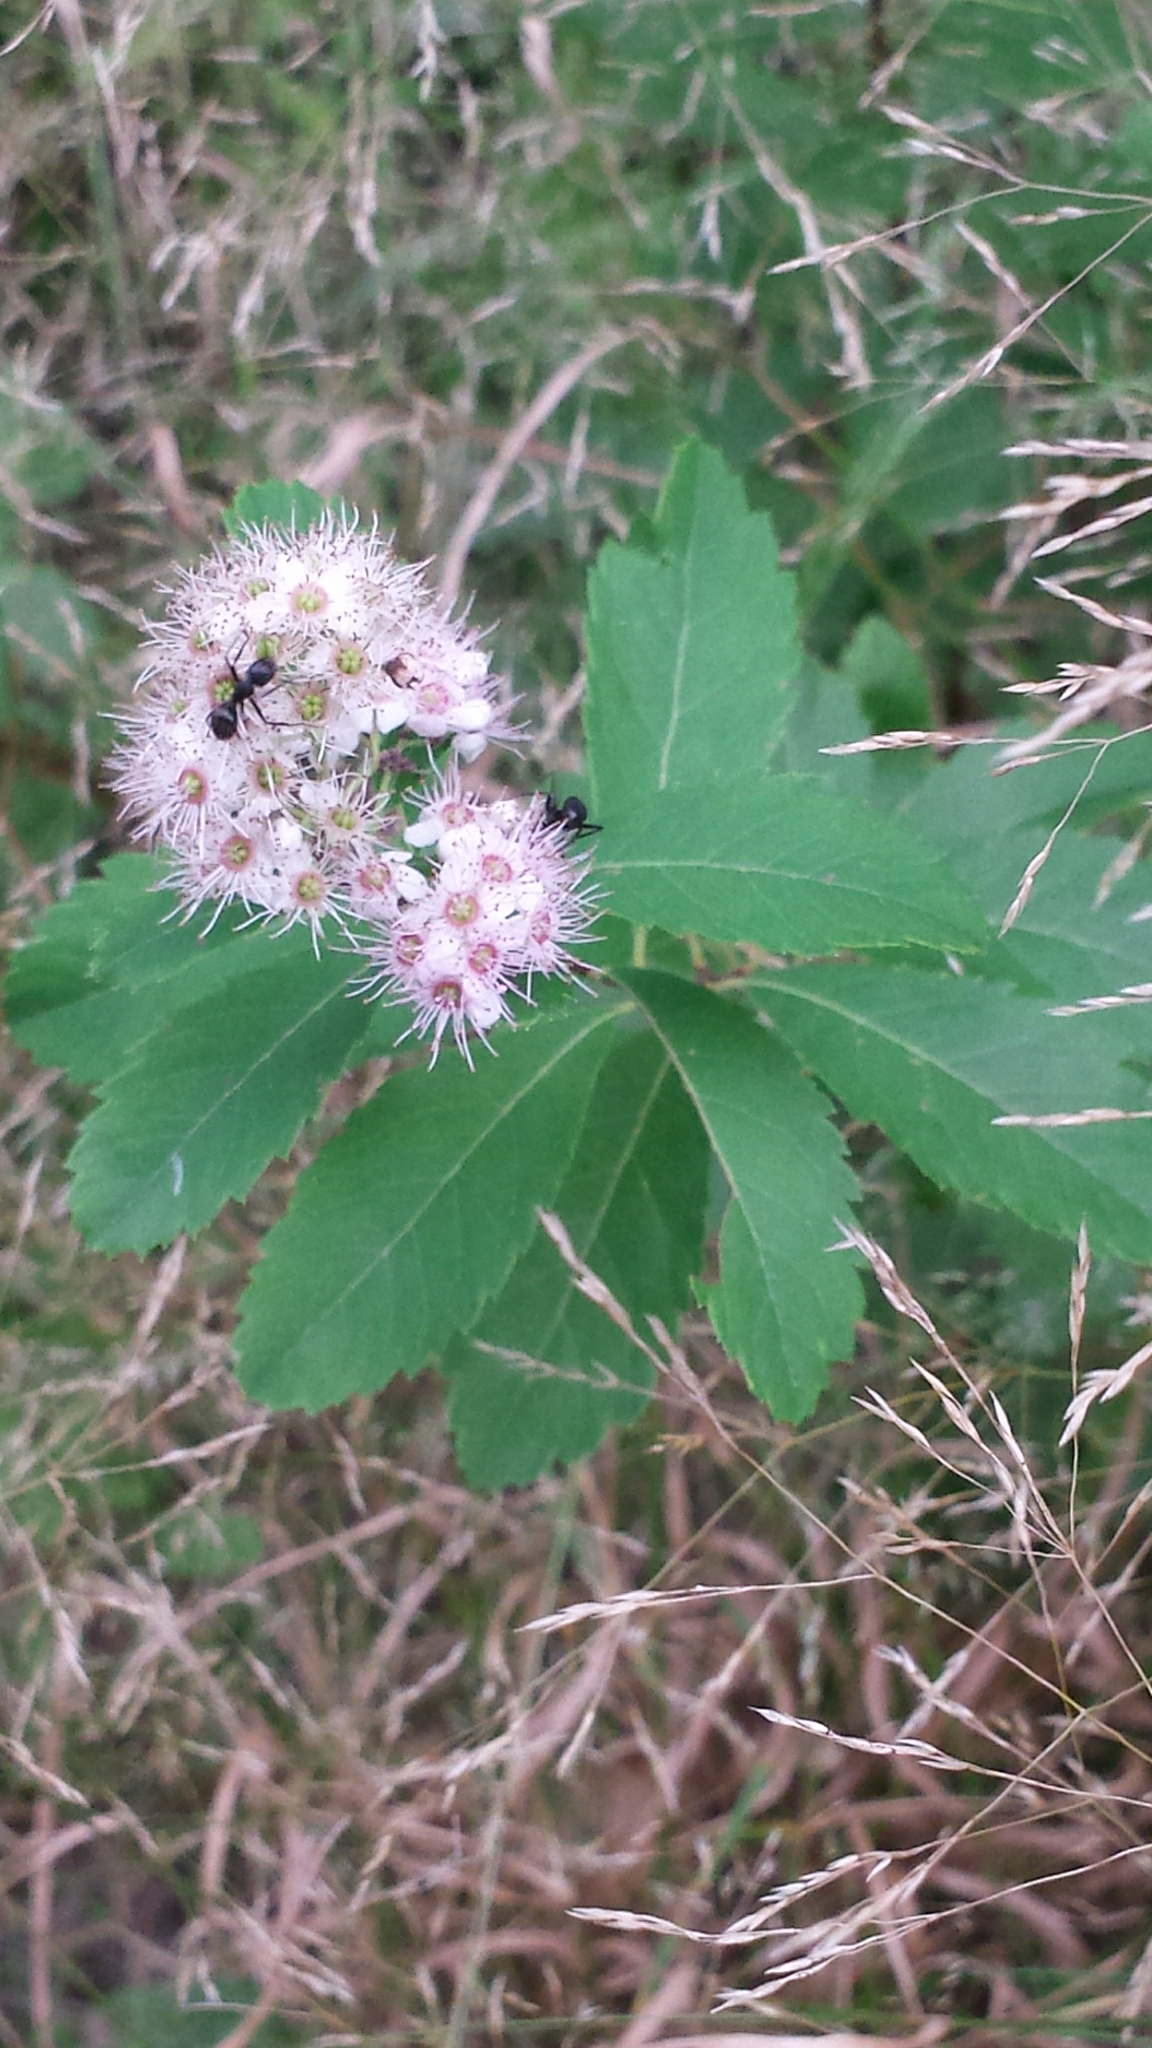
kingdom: Plantae
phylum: Tracheophyta
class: Magnoliopsida
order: Rosales
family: Rosaceae
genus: Spiraea
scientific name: Spiraea alba
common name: Pale bridewort
